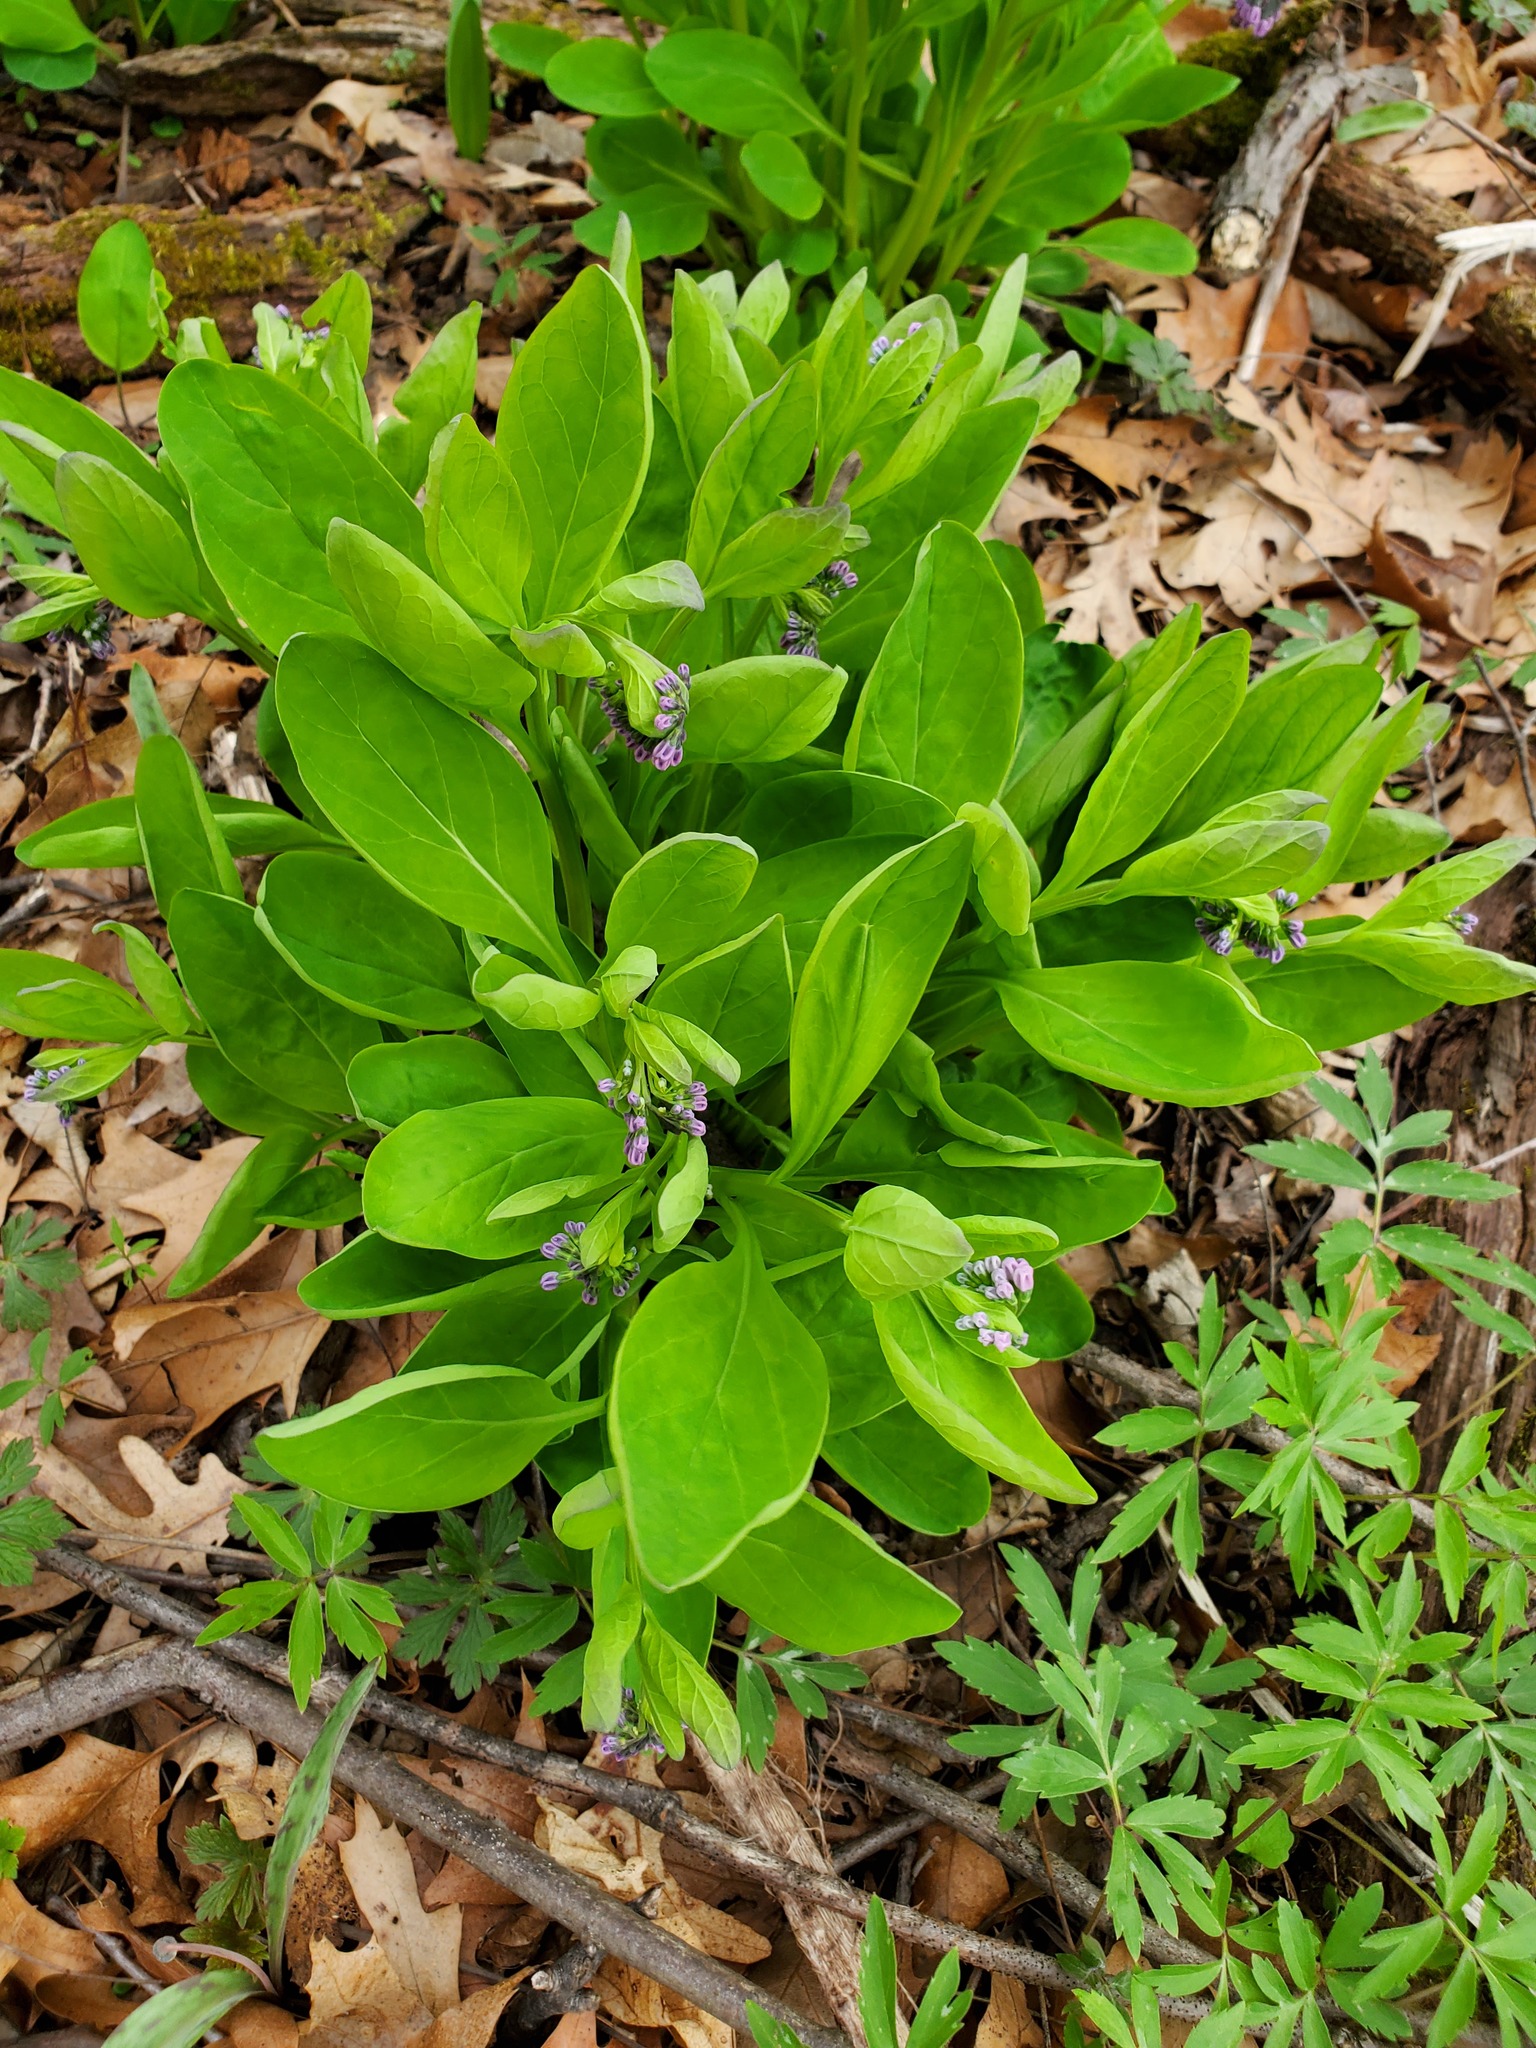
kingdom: Plantae
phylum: Tracheophyta
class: Magnoliopsida
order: Boraginales
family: Boraginaceae
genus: Mertensia
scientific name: Mertensia virginica
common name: Virginia bluebells
